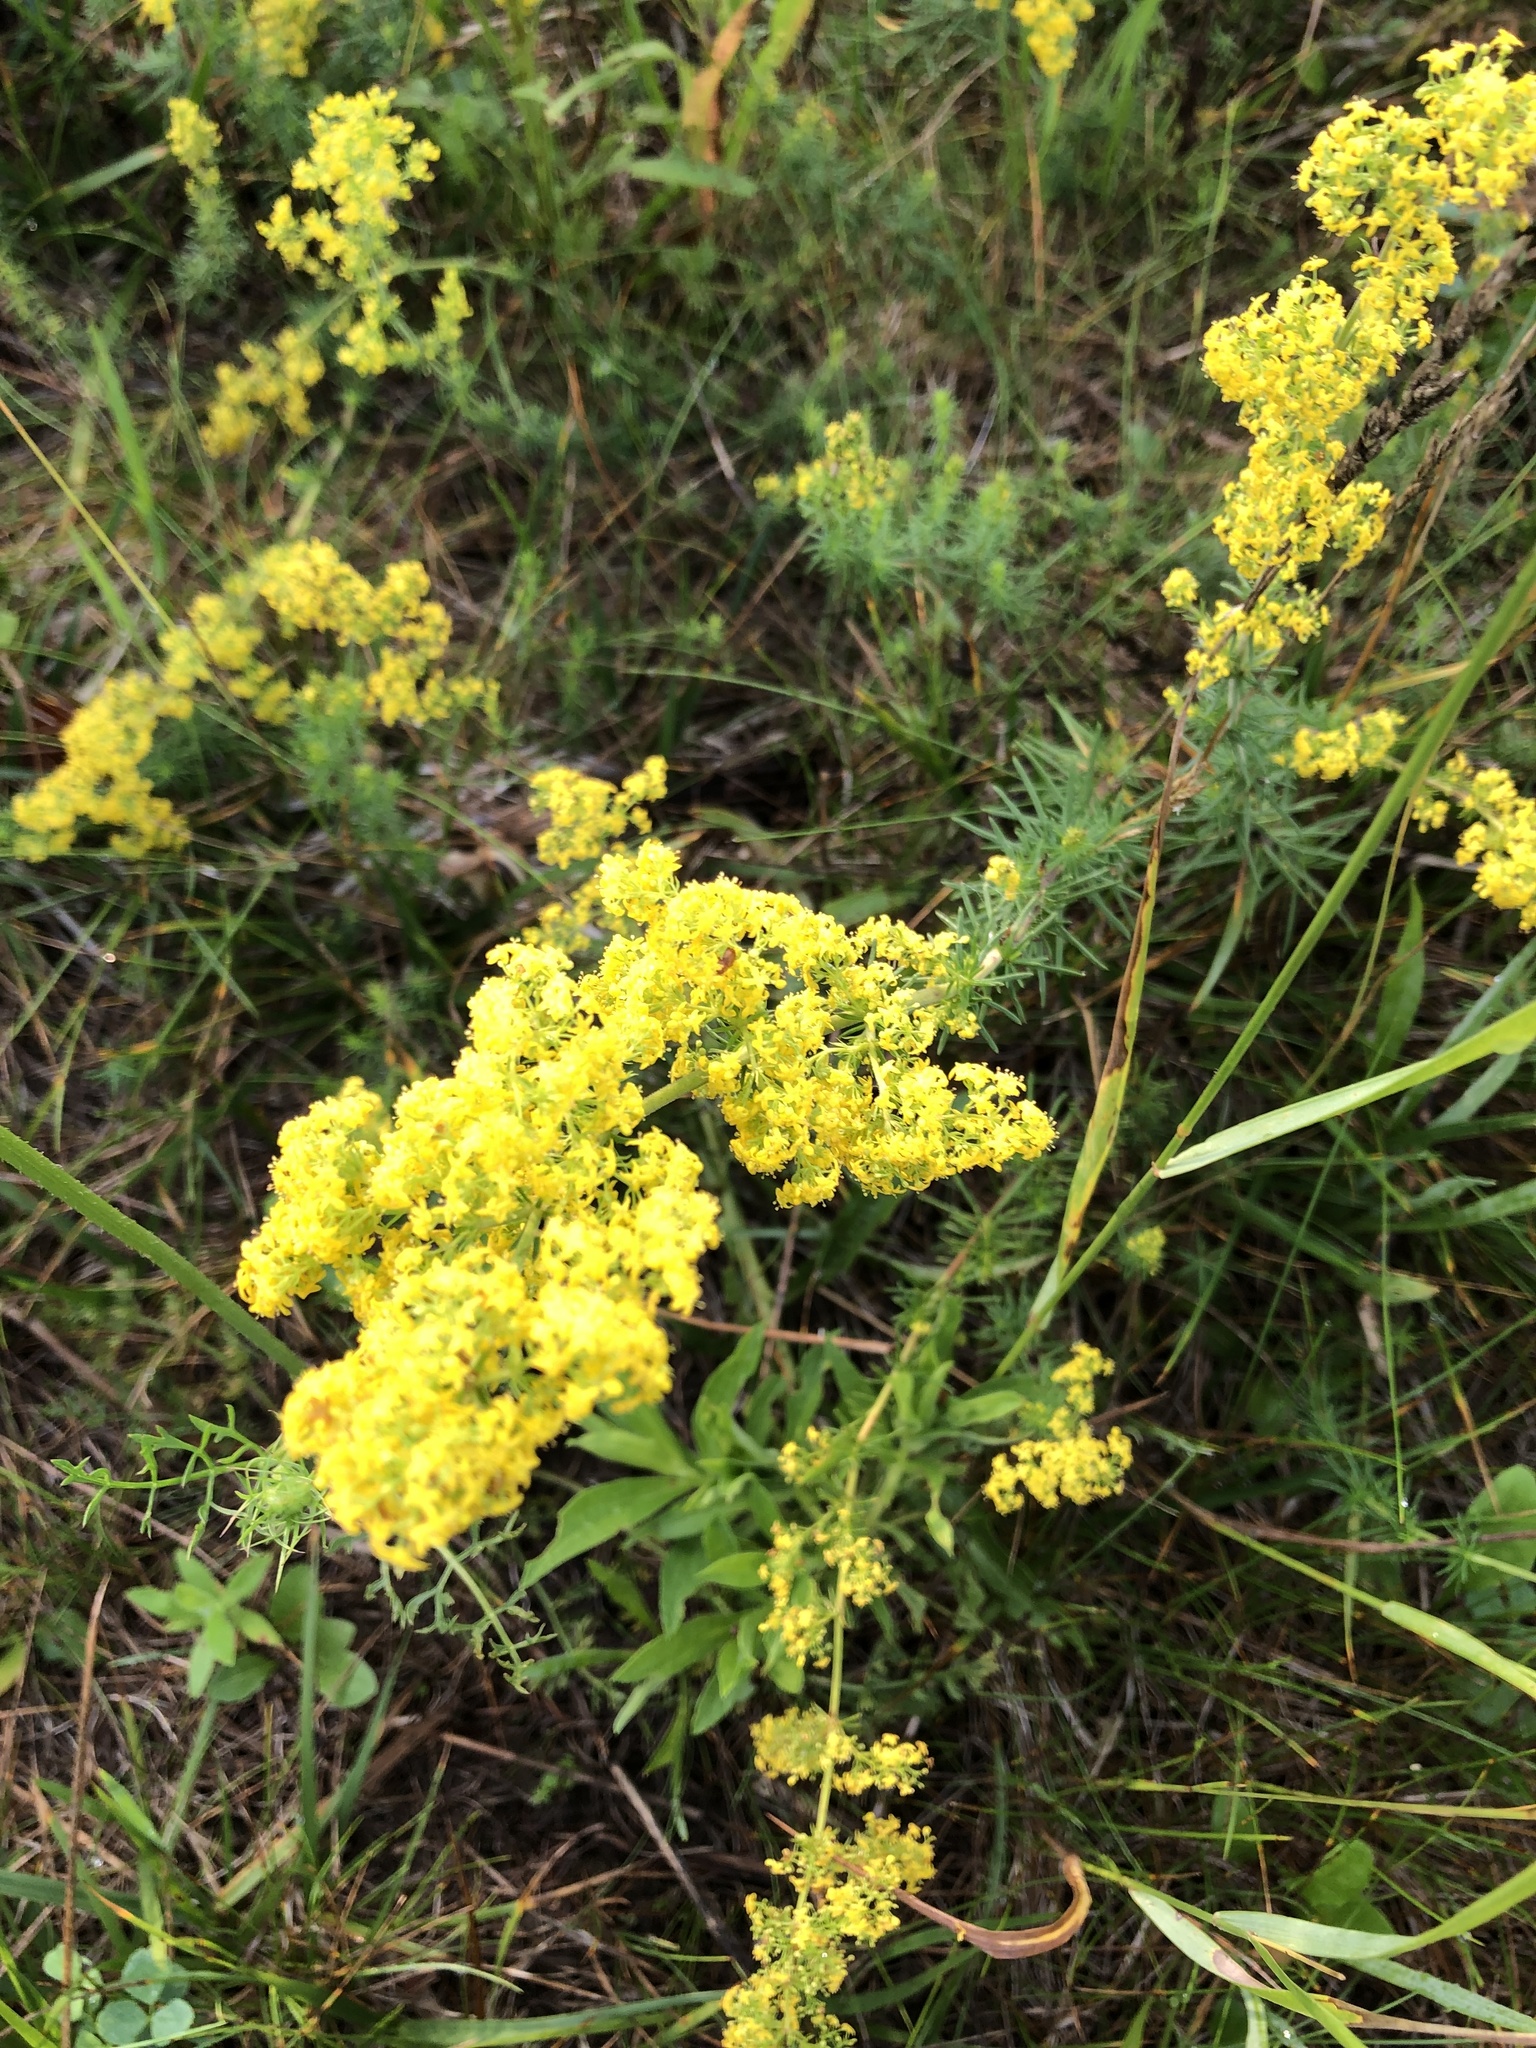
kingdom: Plantae
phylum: Tracheophyta
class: Magnoliopsida
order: Gentianales
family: Rubiaceae
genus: Galium
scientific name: Galium verum
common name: Lady's bedstraw
